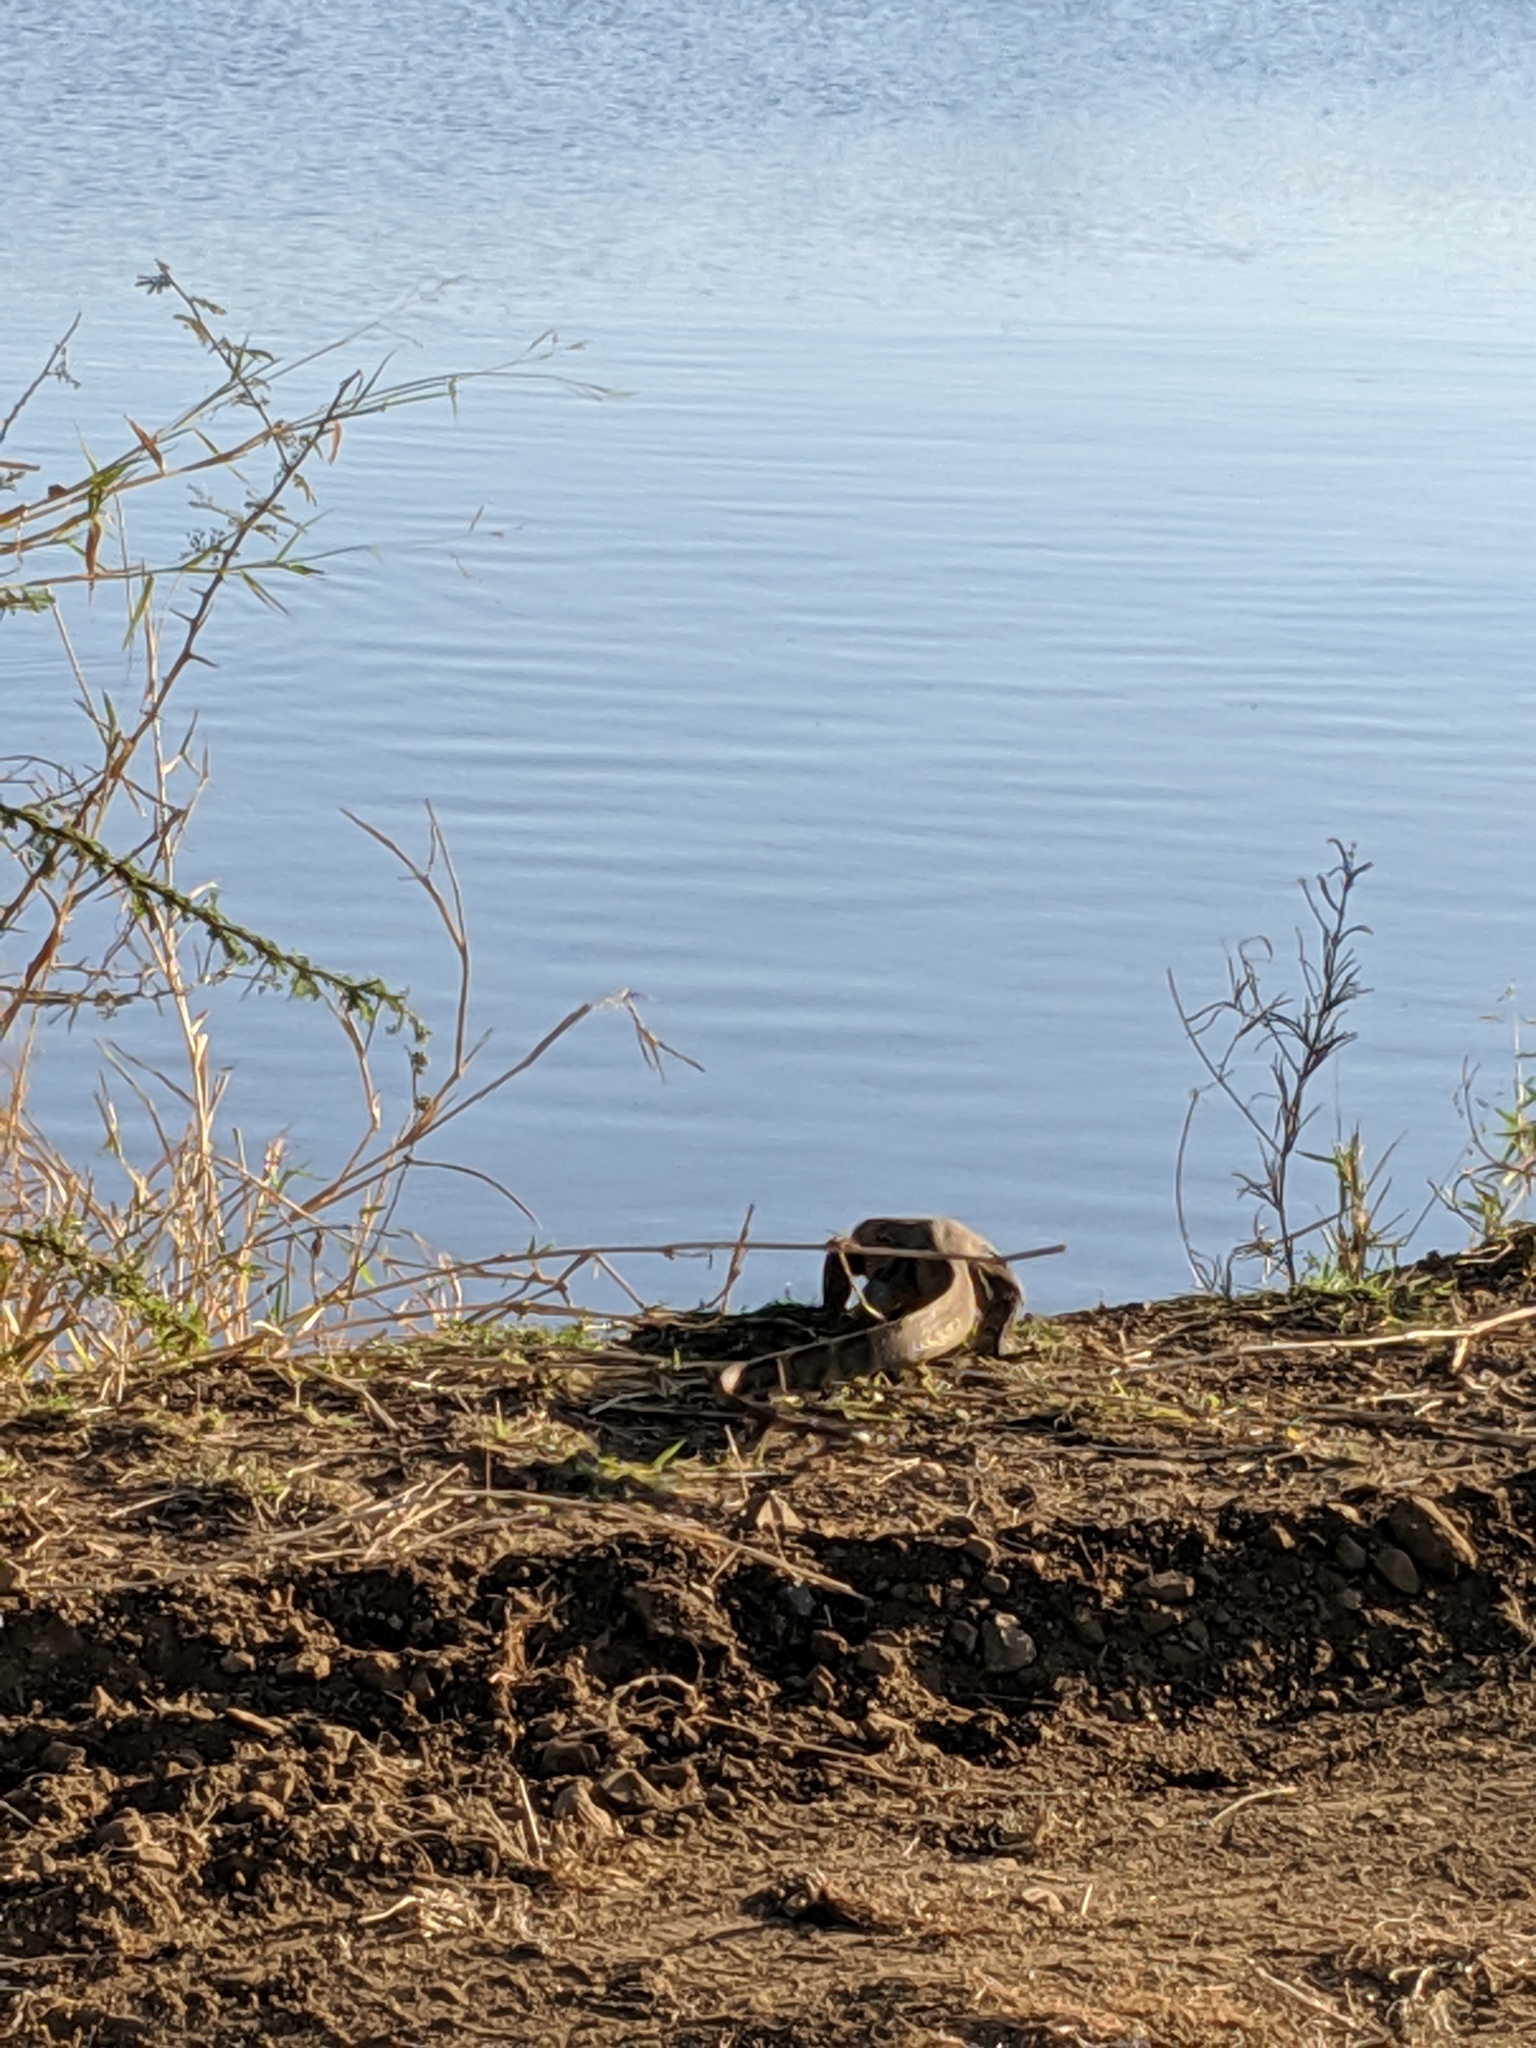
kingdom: Animalia
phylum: Chordata
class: Squamata
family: Varanidae
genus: Varanus
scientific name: Varanus niloticus
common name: Nile monitor
